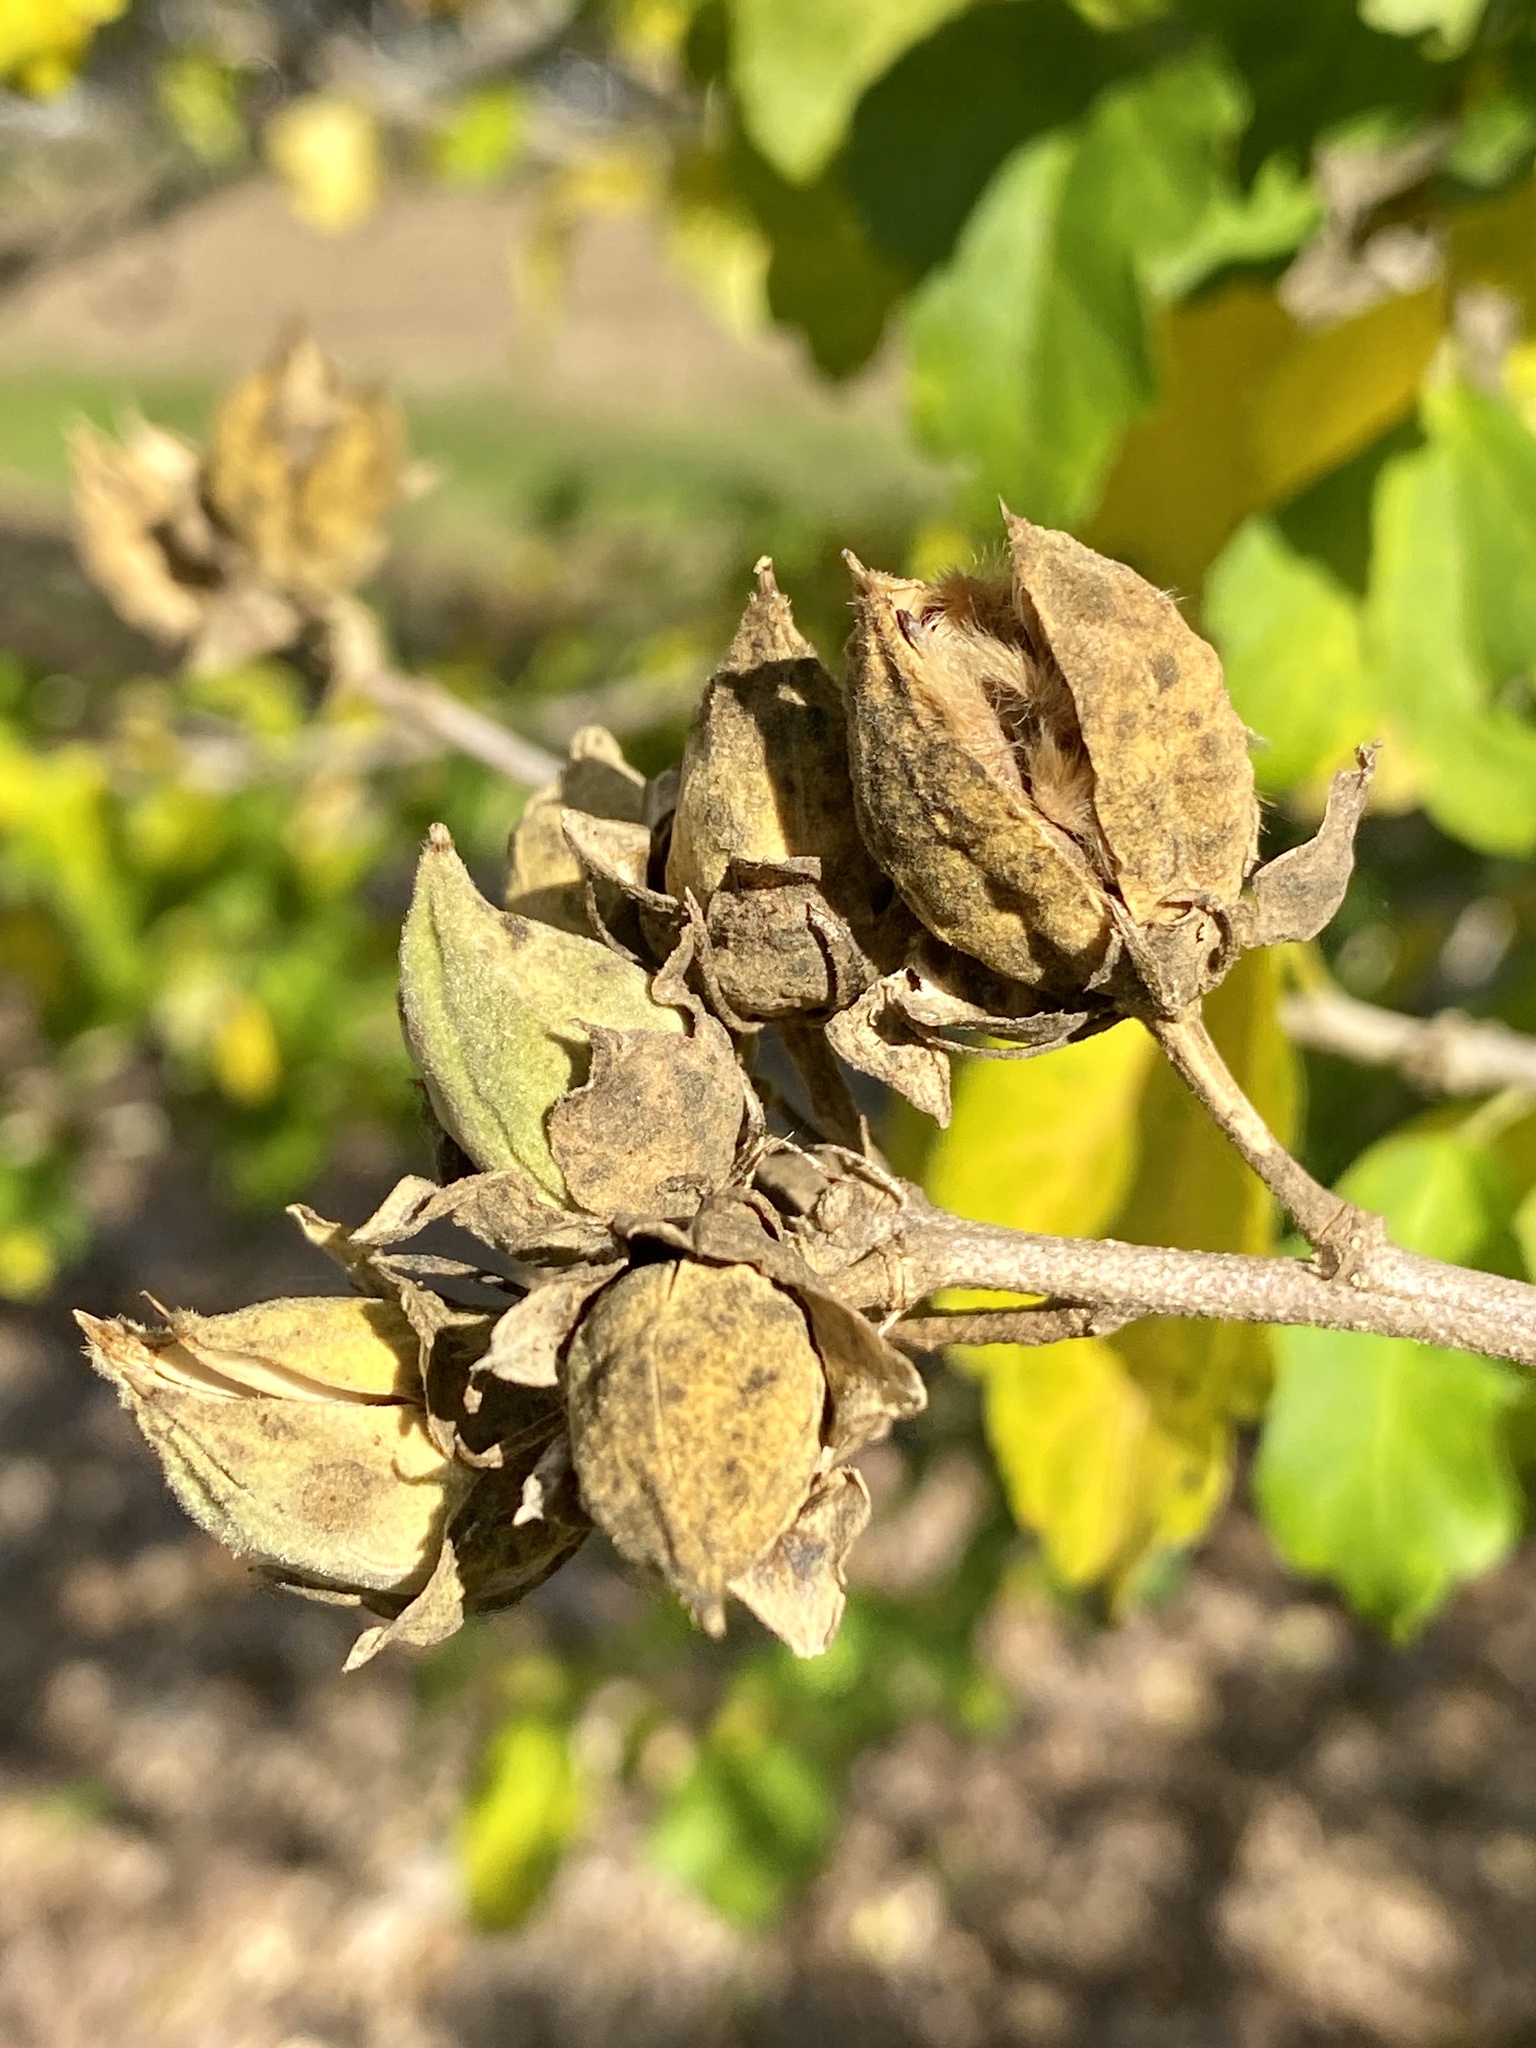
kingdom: Plantae
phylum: Tracheophyta
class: Magnoliopsida
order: Malvales
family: Malvaceae
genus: Hibiscus
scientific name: Hibiscus syriacus
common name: Syrian ketmia
